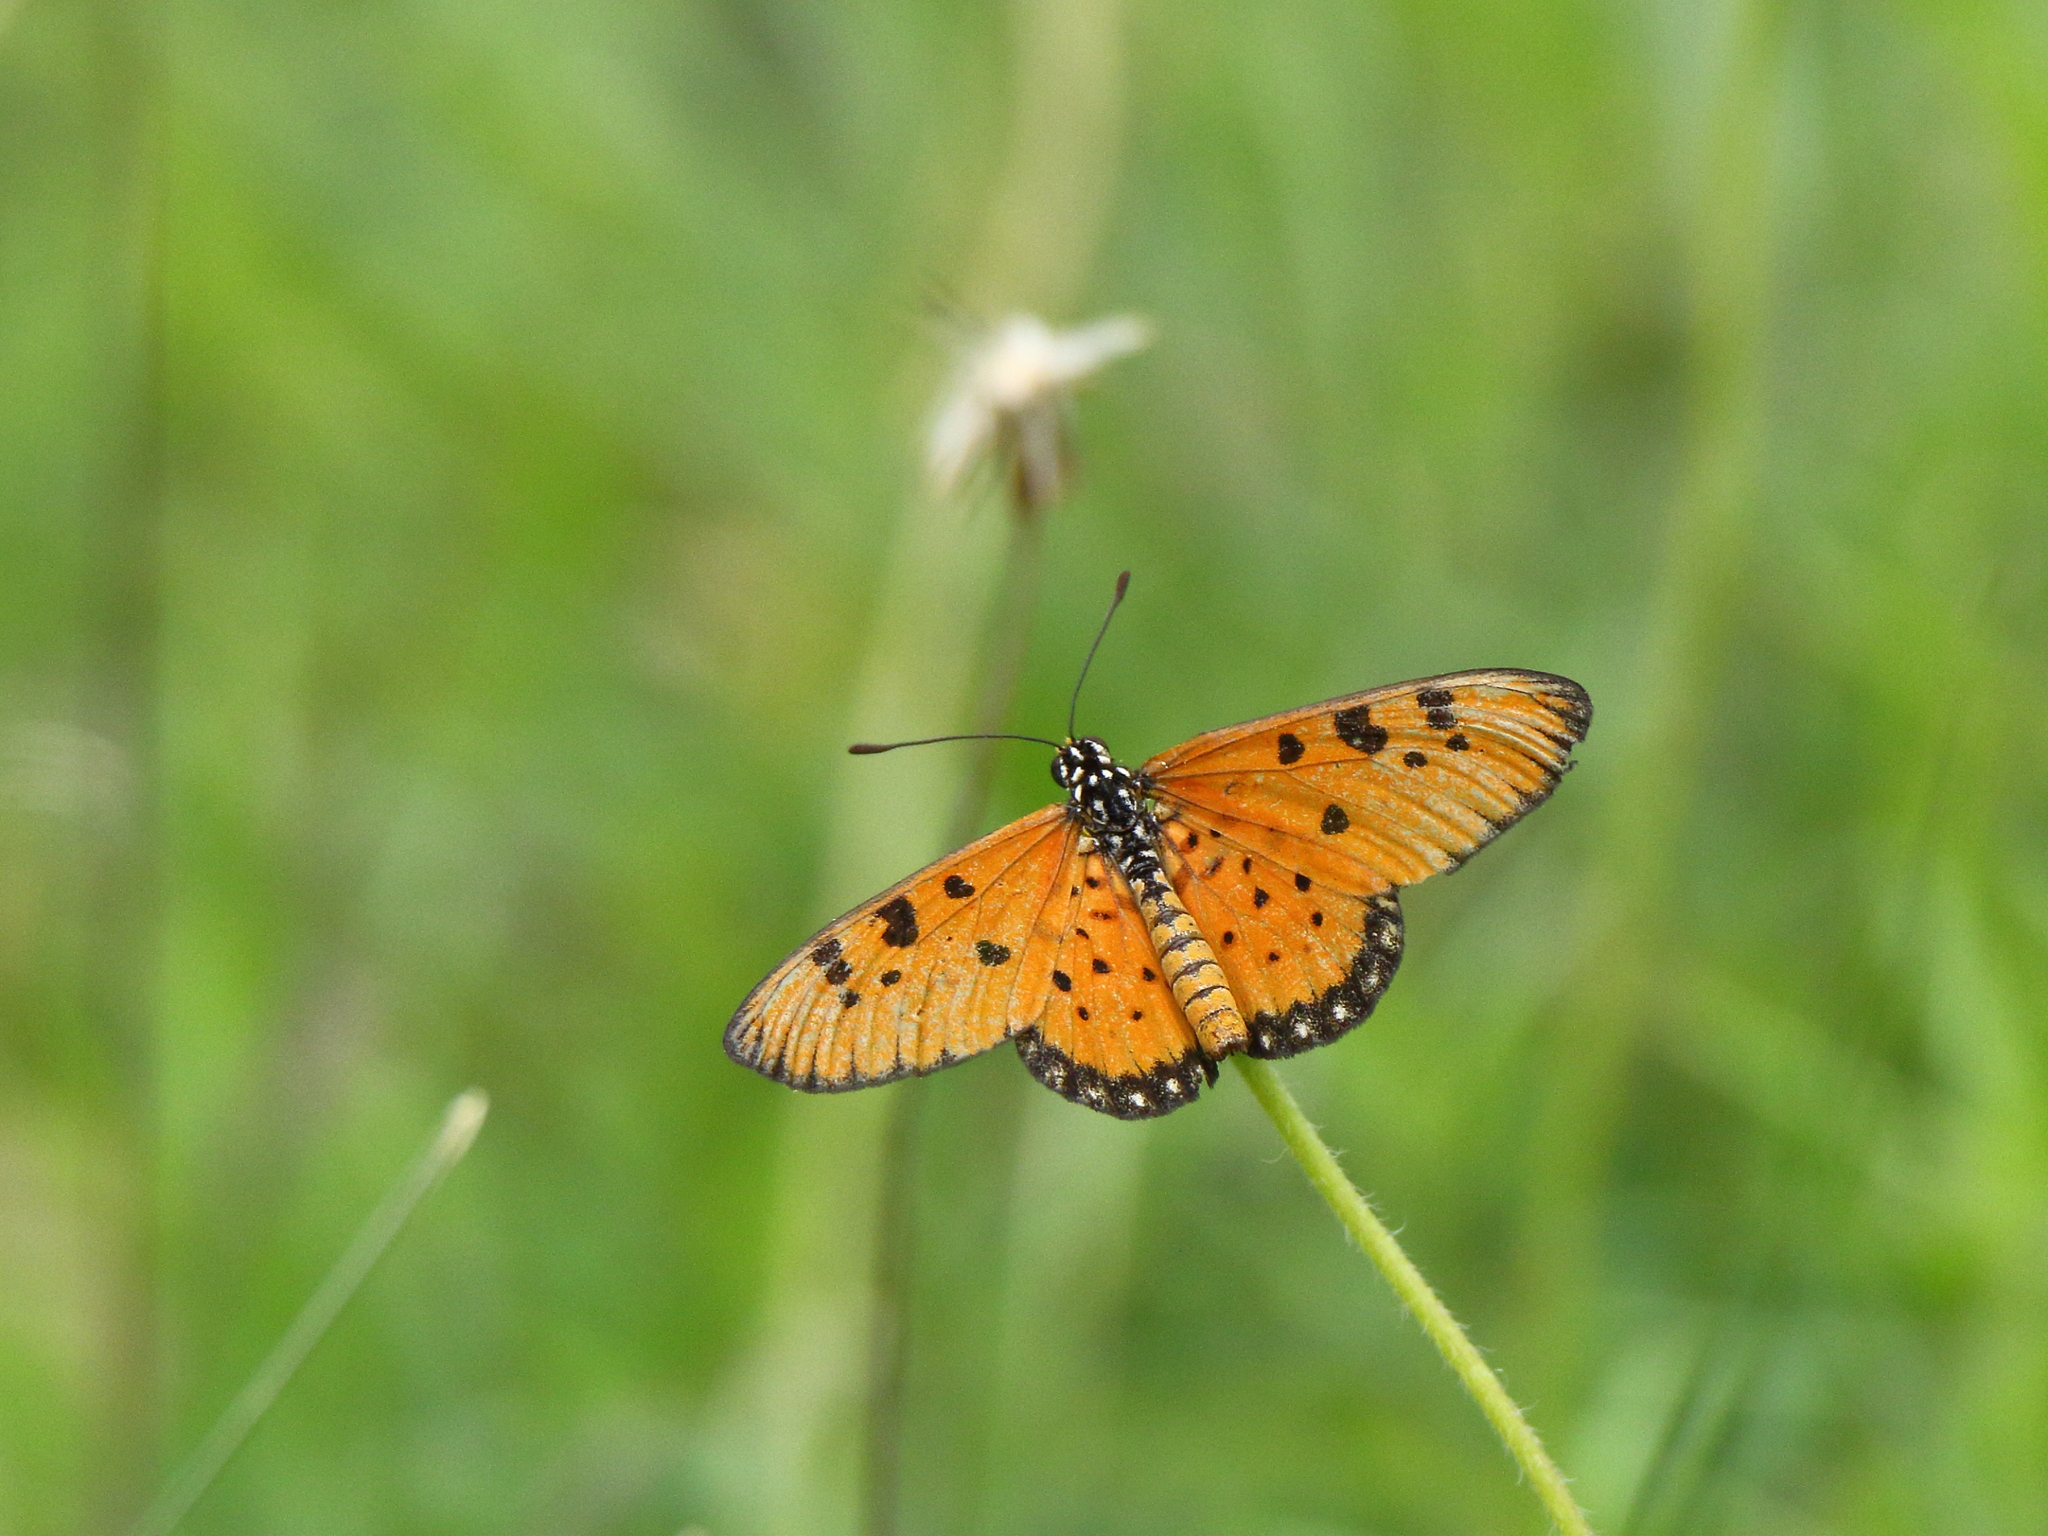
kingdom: Animalia
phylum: Arthropoda
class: Insecta
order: Lepidoptera
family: Nymphalidae
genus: Acraea
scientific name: Acraea terpsicore
